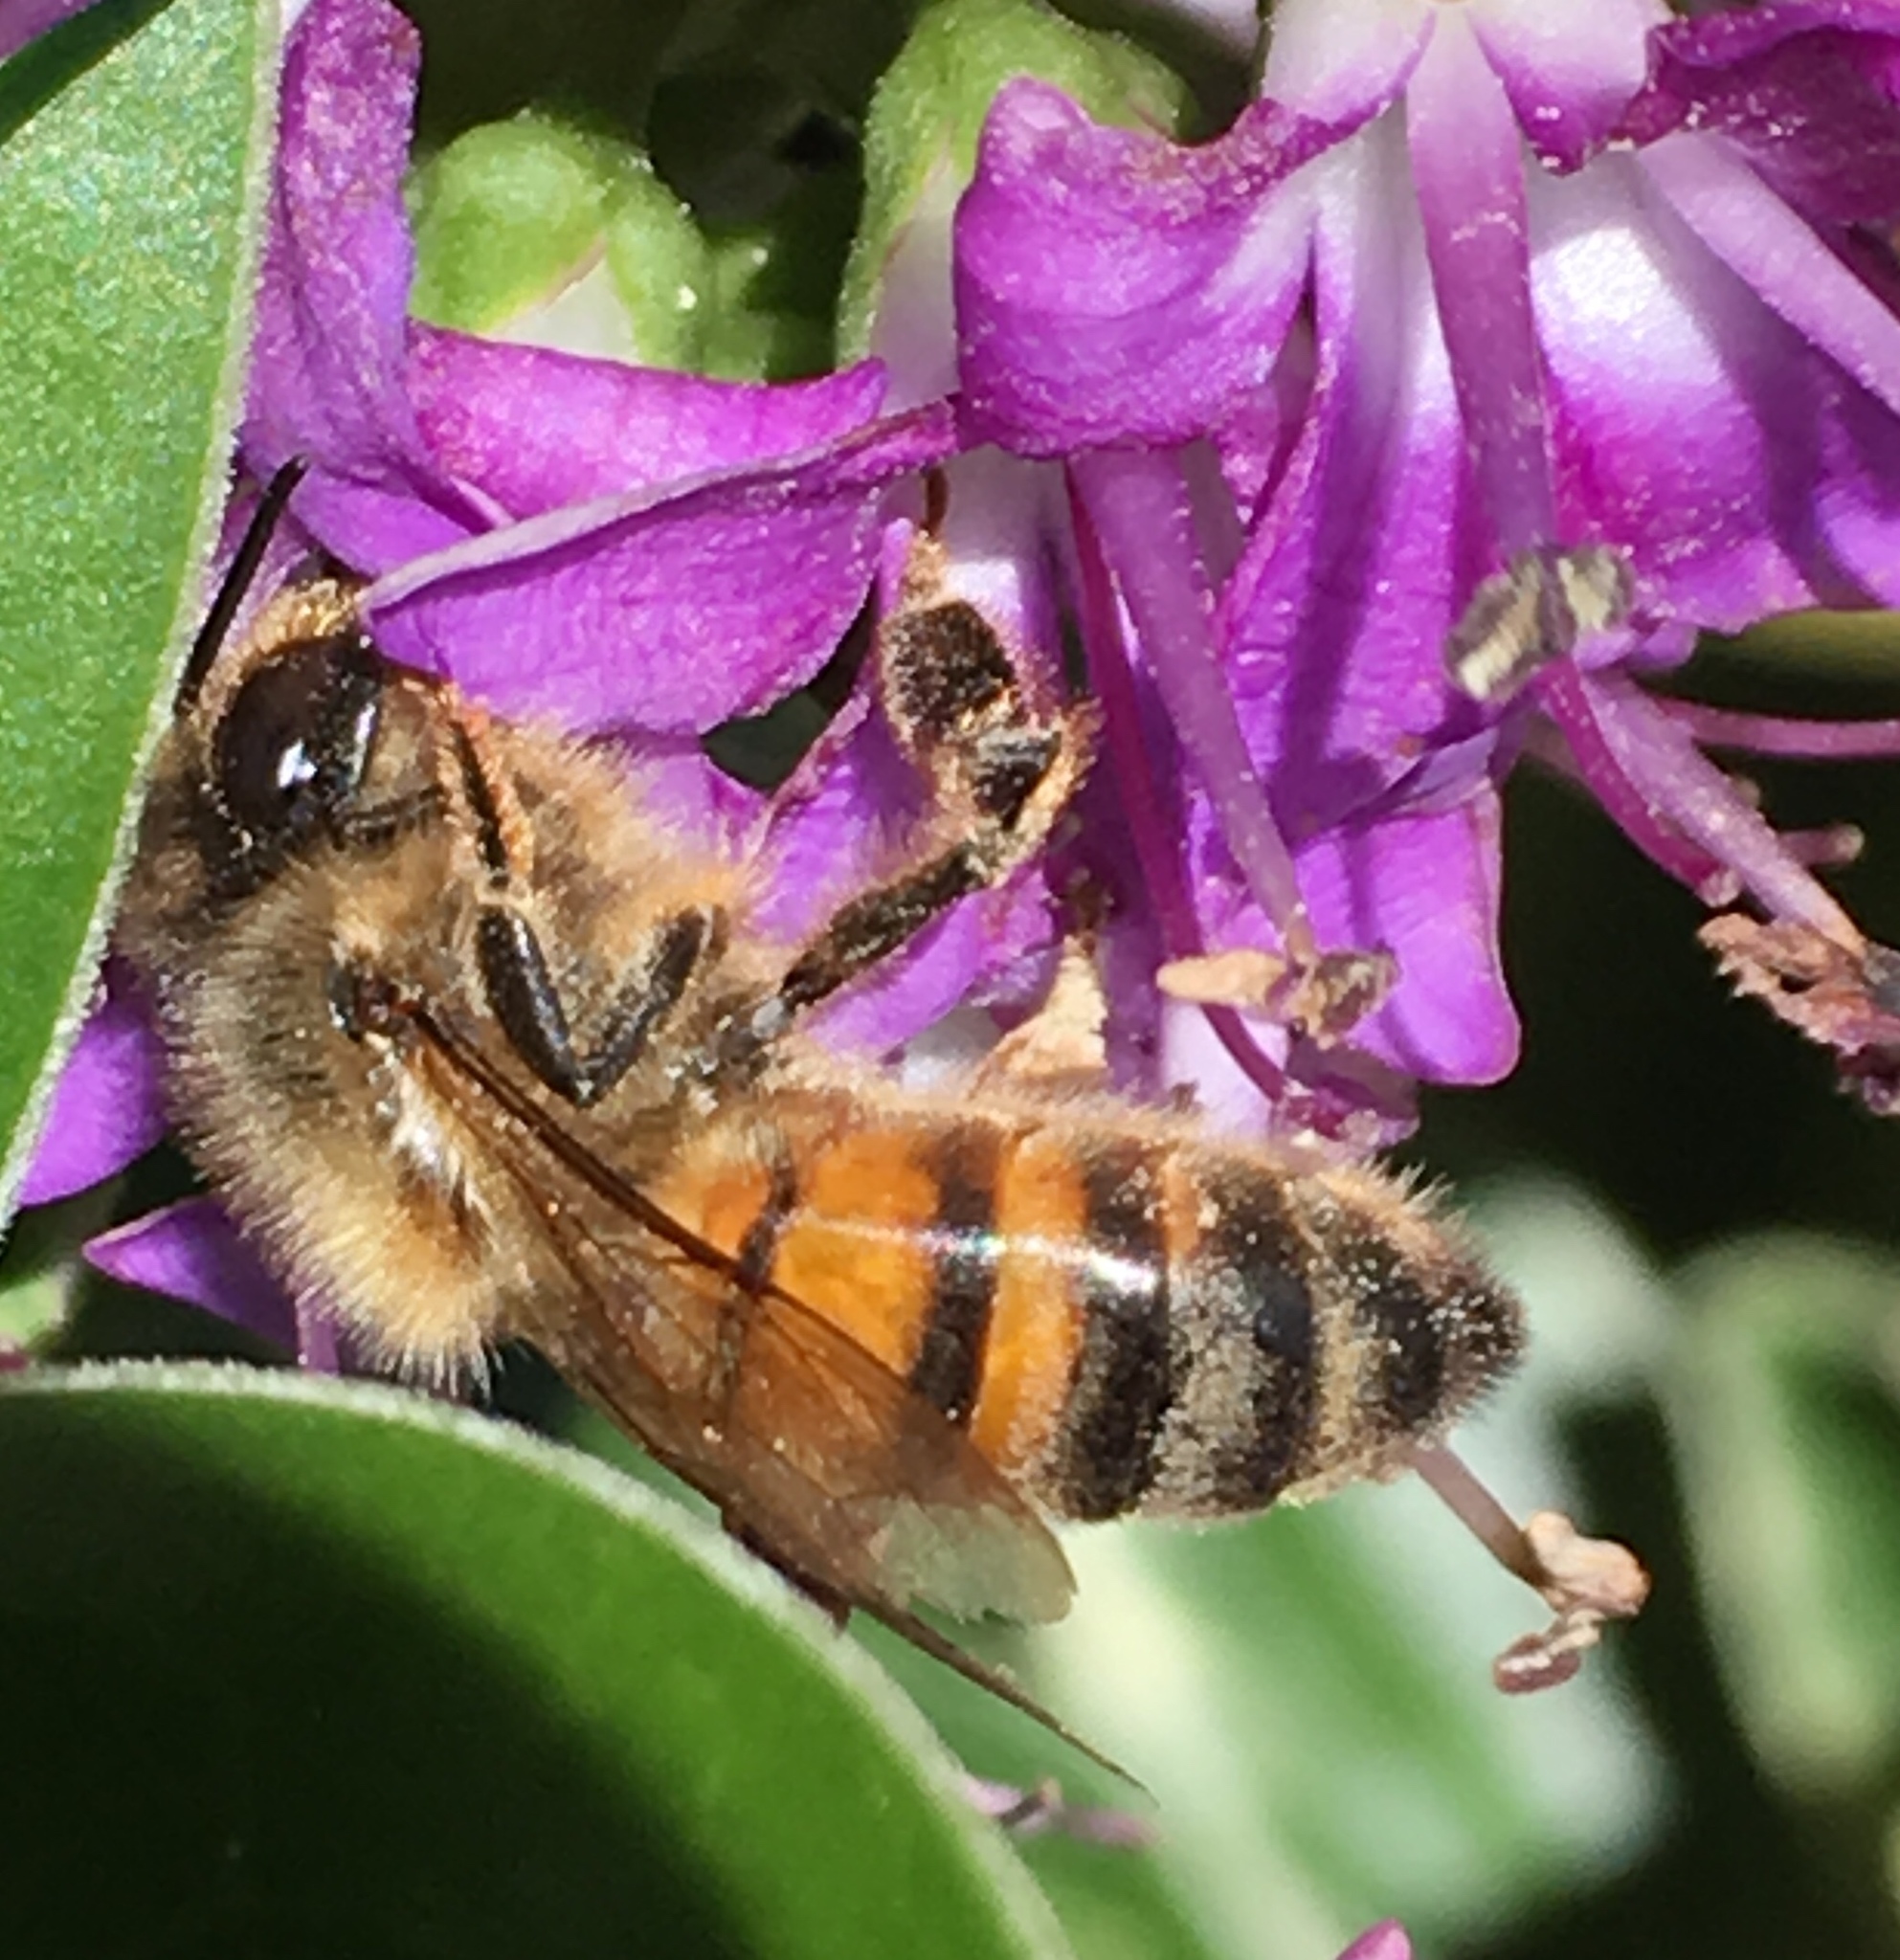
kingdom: Animalia
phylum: Arthropoda
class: Insecta
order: Hymenoptera
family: Apidae
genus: Apis
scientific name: Apis mellifera
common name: Honey bee
